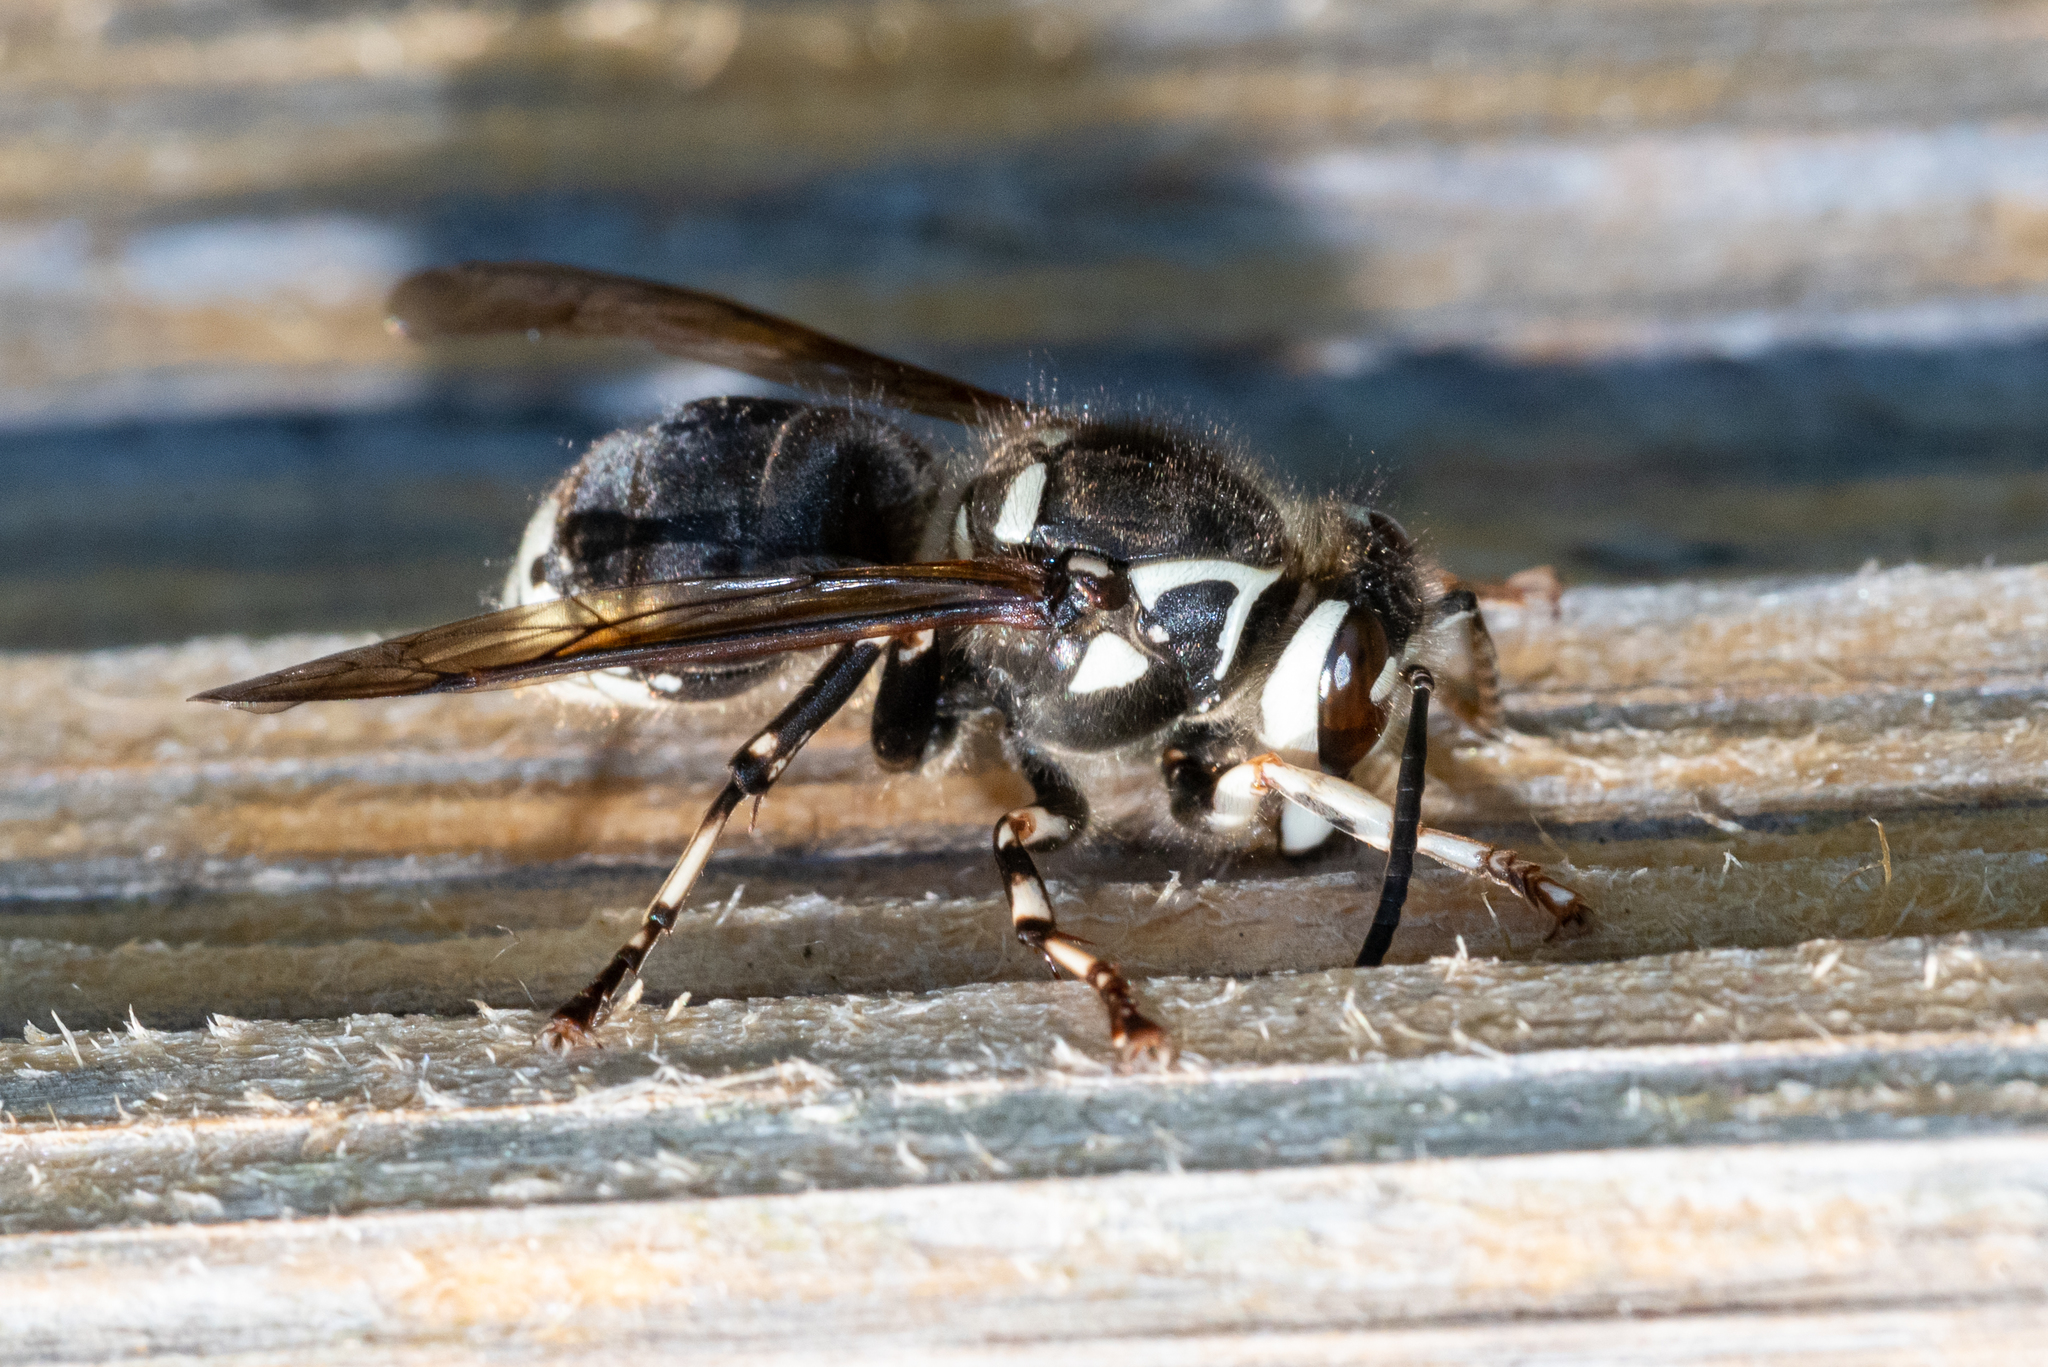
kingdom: Animalia
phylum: Arthropoda
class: Insecta
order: Hymenoptera
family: Vespidae
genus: Dolichovespula
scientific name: Dolichovespula maculata
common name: Bald-faced hornet
